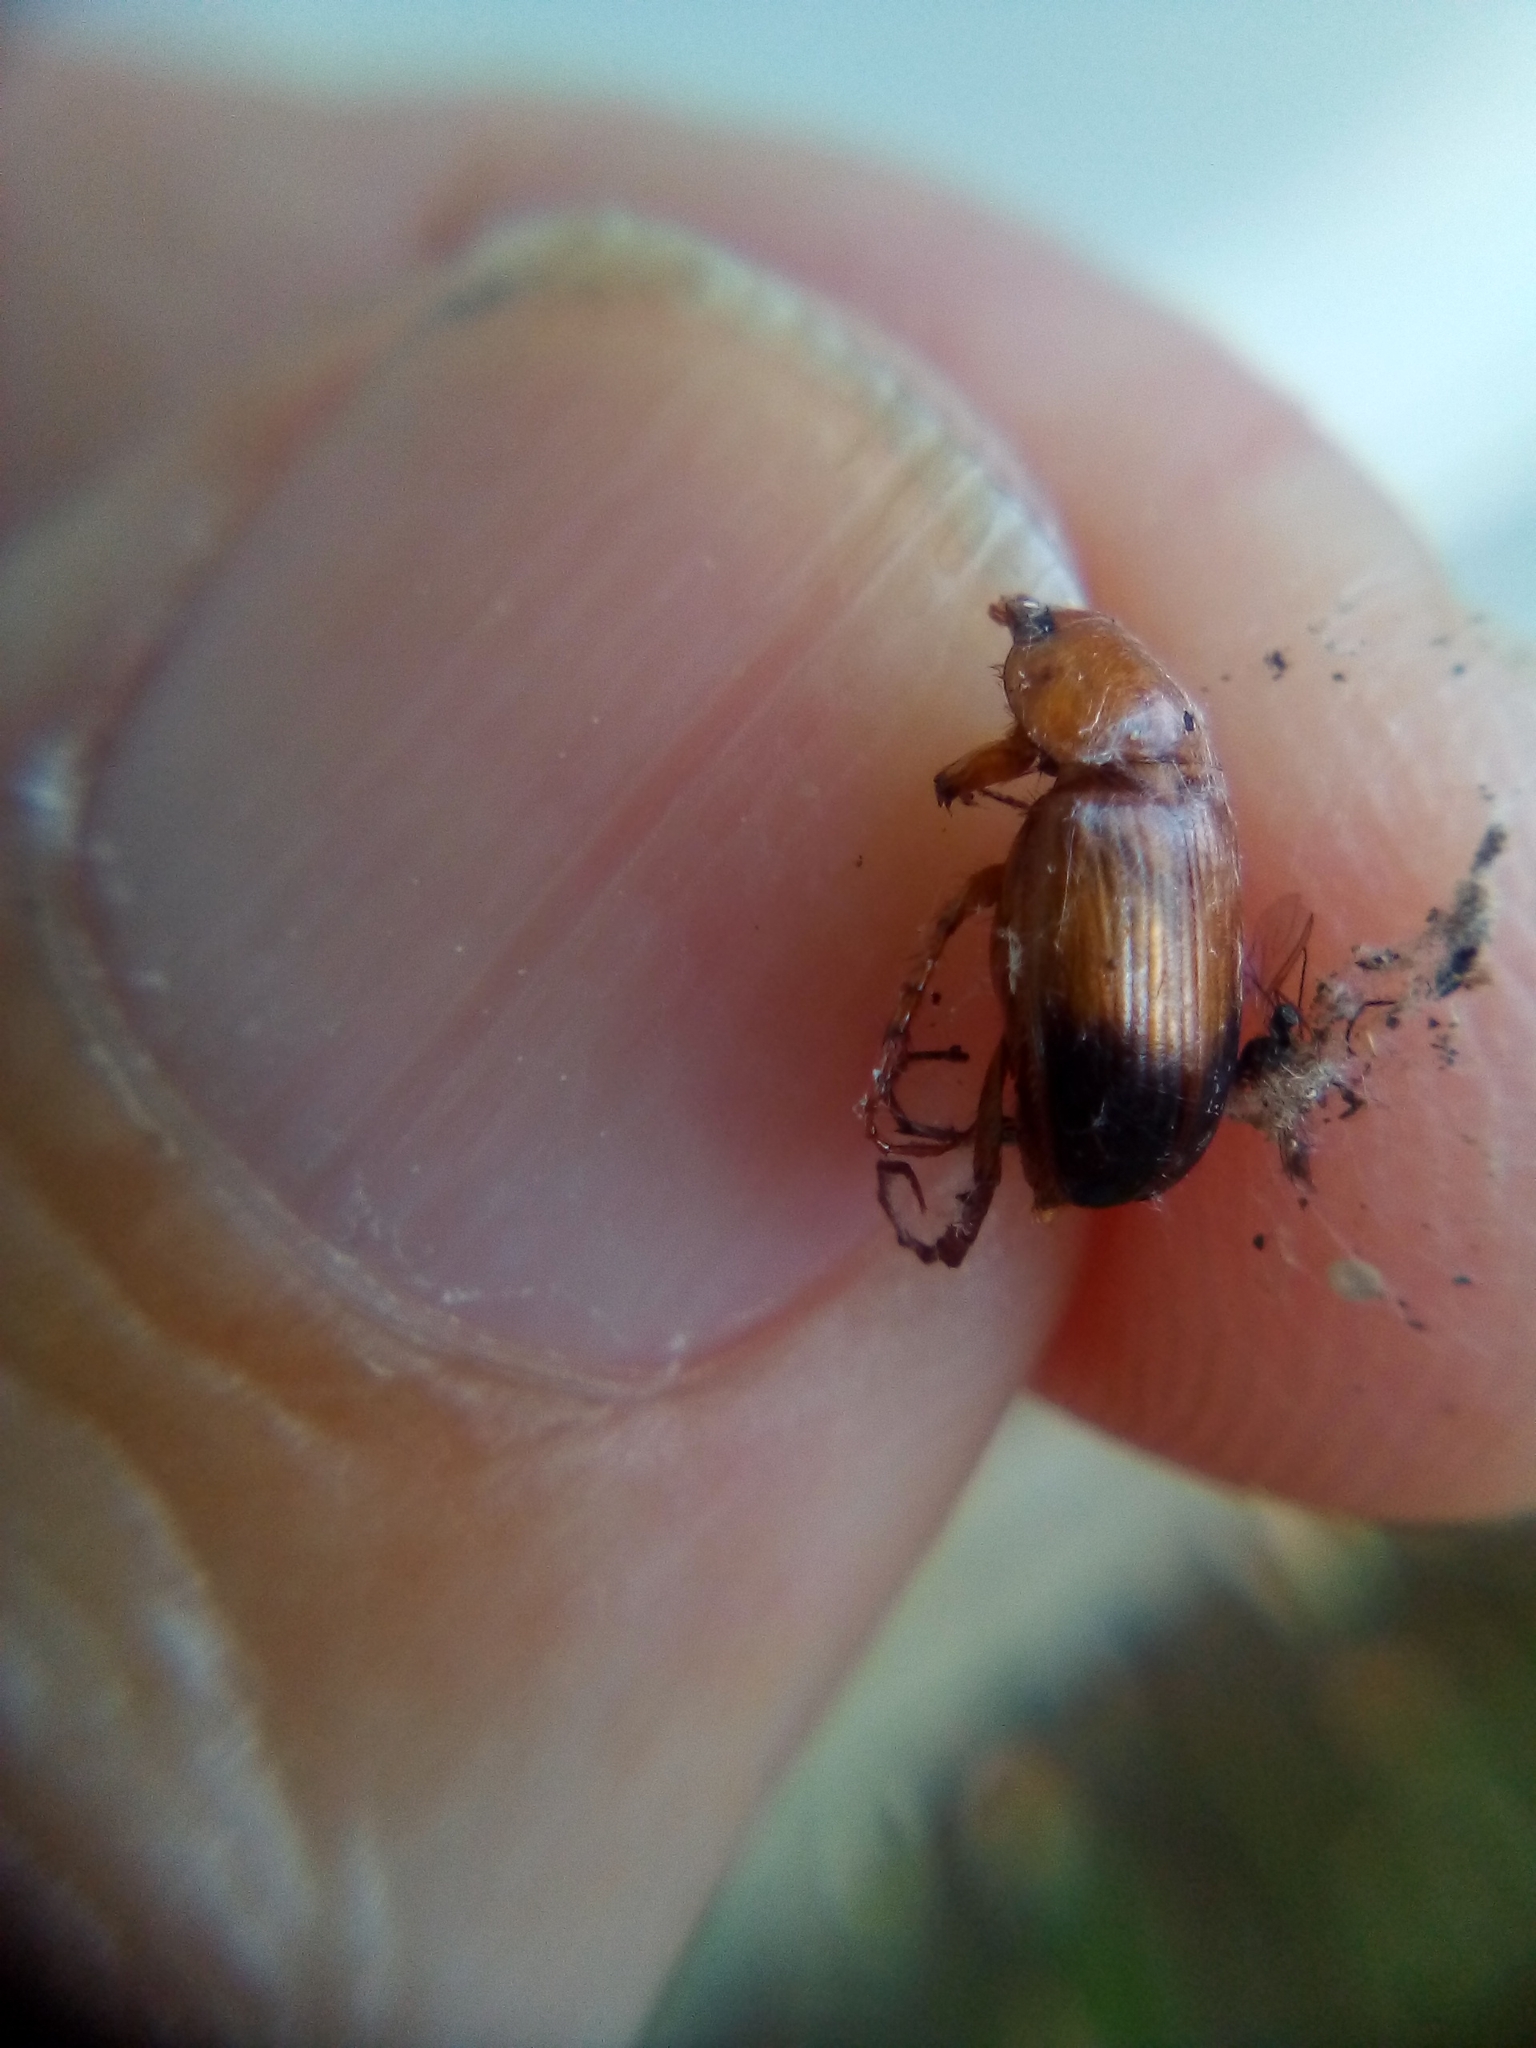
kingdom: Animalia
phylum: Arthropoda
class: Insecta
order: Coleoptera
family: Scarabaeidae
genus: Phyllotocus
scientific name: Phyllotocus macleayi
